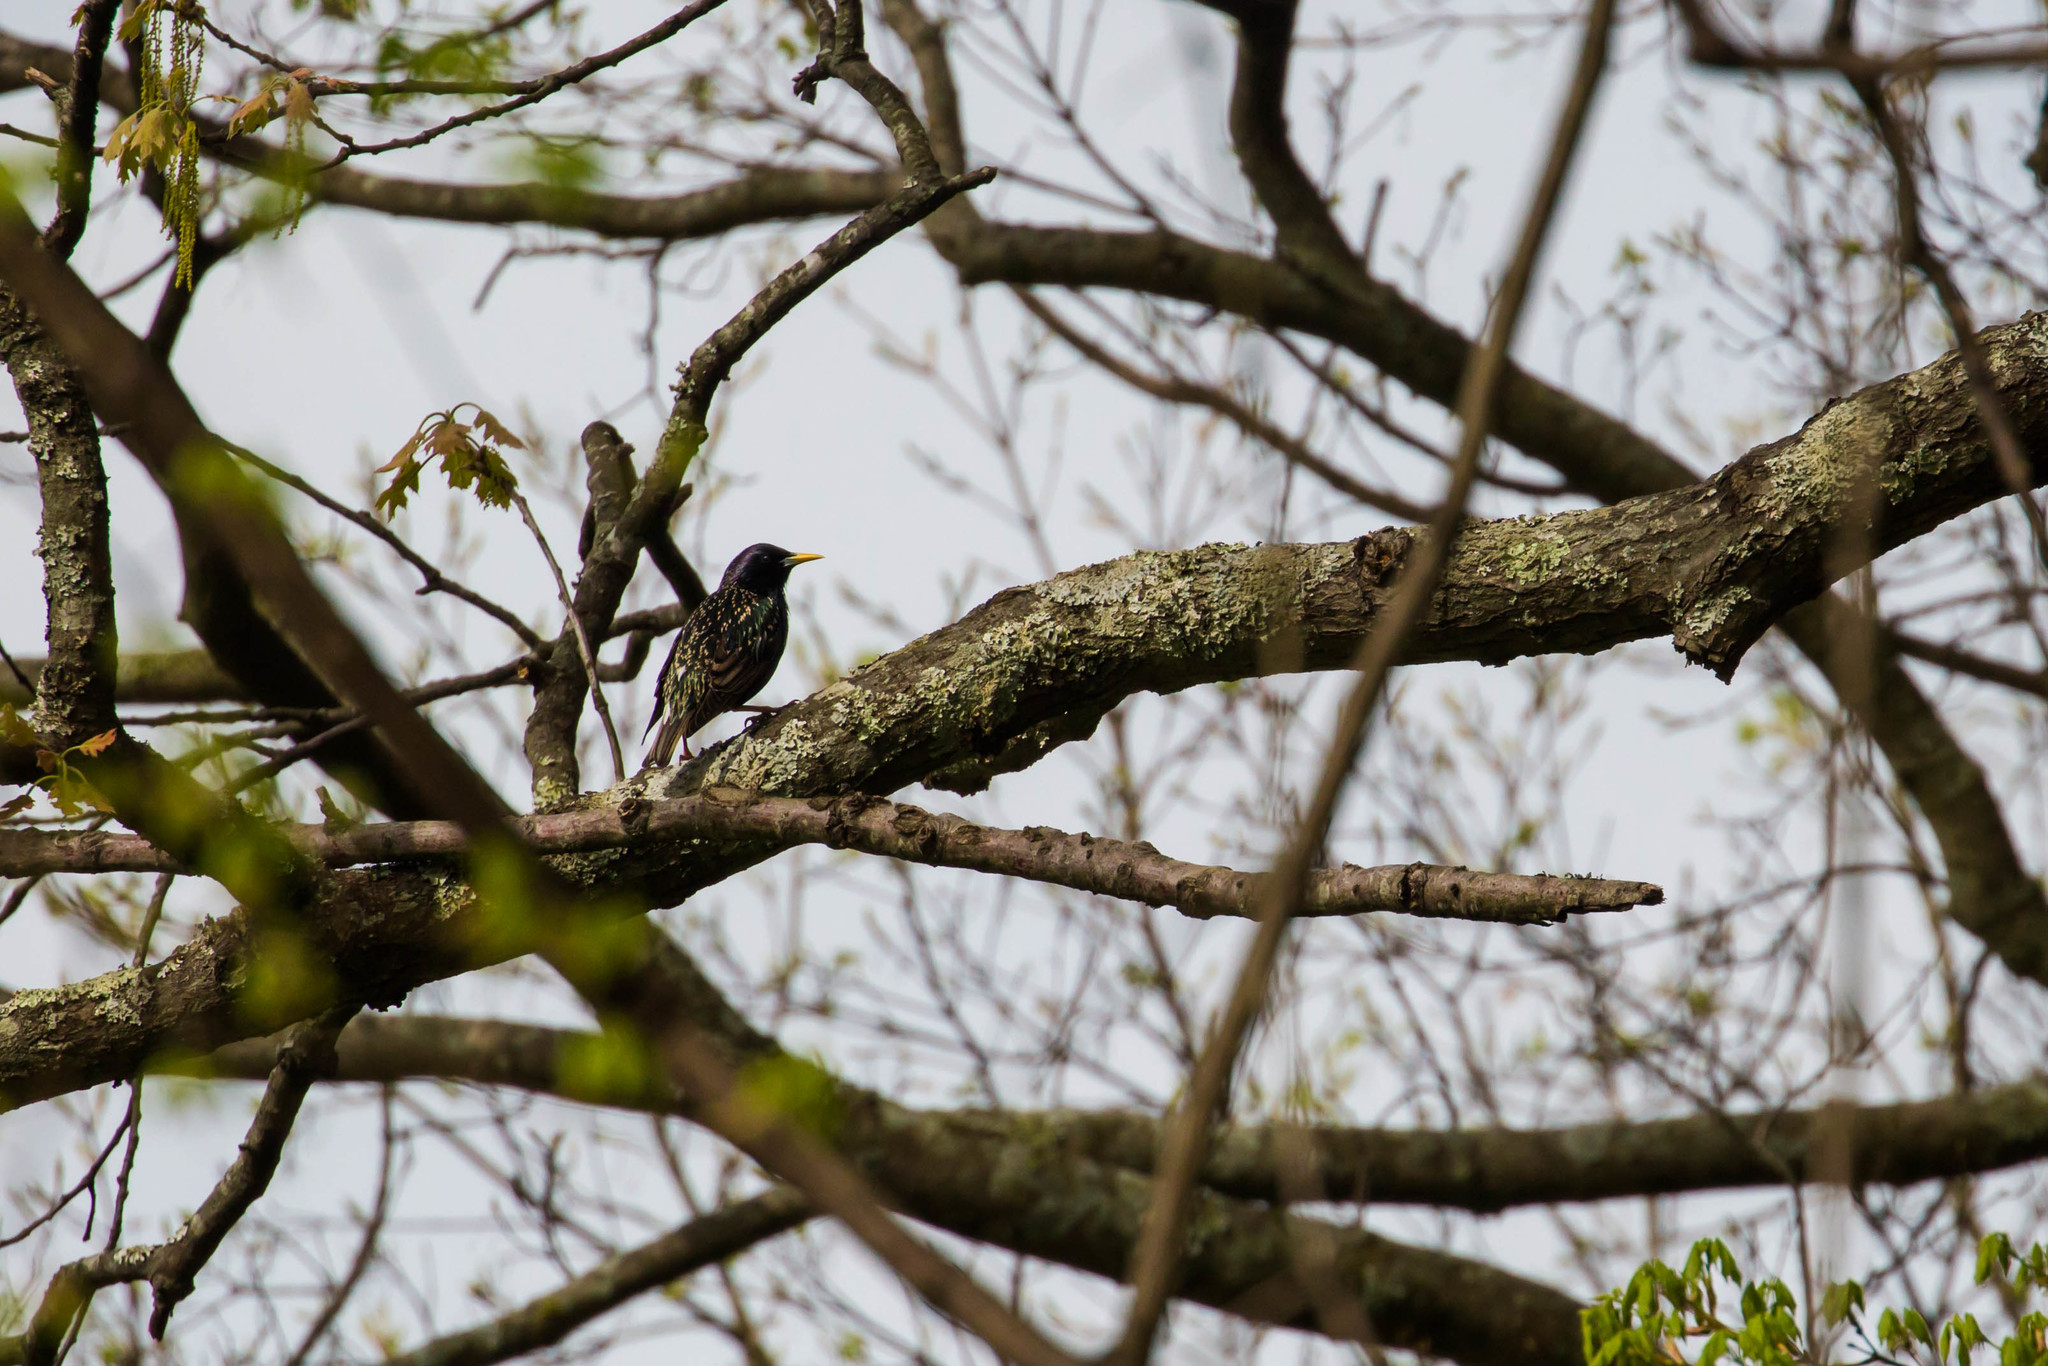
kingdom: Animalia
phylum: Chordata
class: Aves
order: Passeriformes
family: Sturnidae
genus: Sturnus
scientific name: Sturnus vulgaris
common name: Common starling
